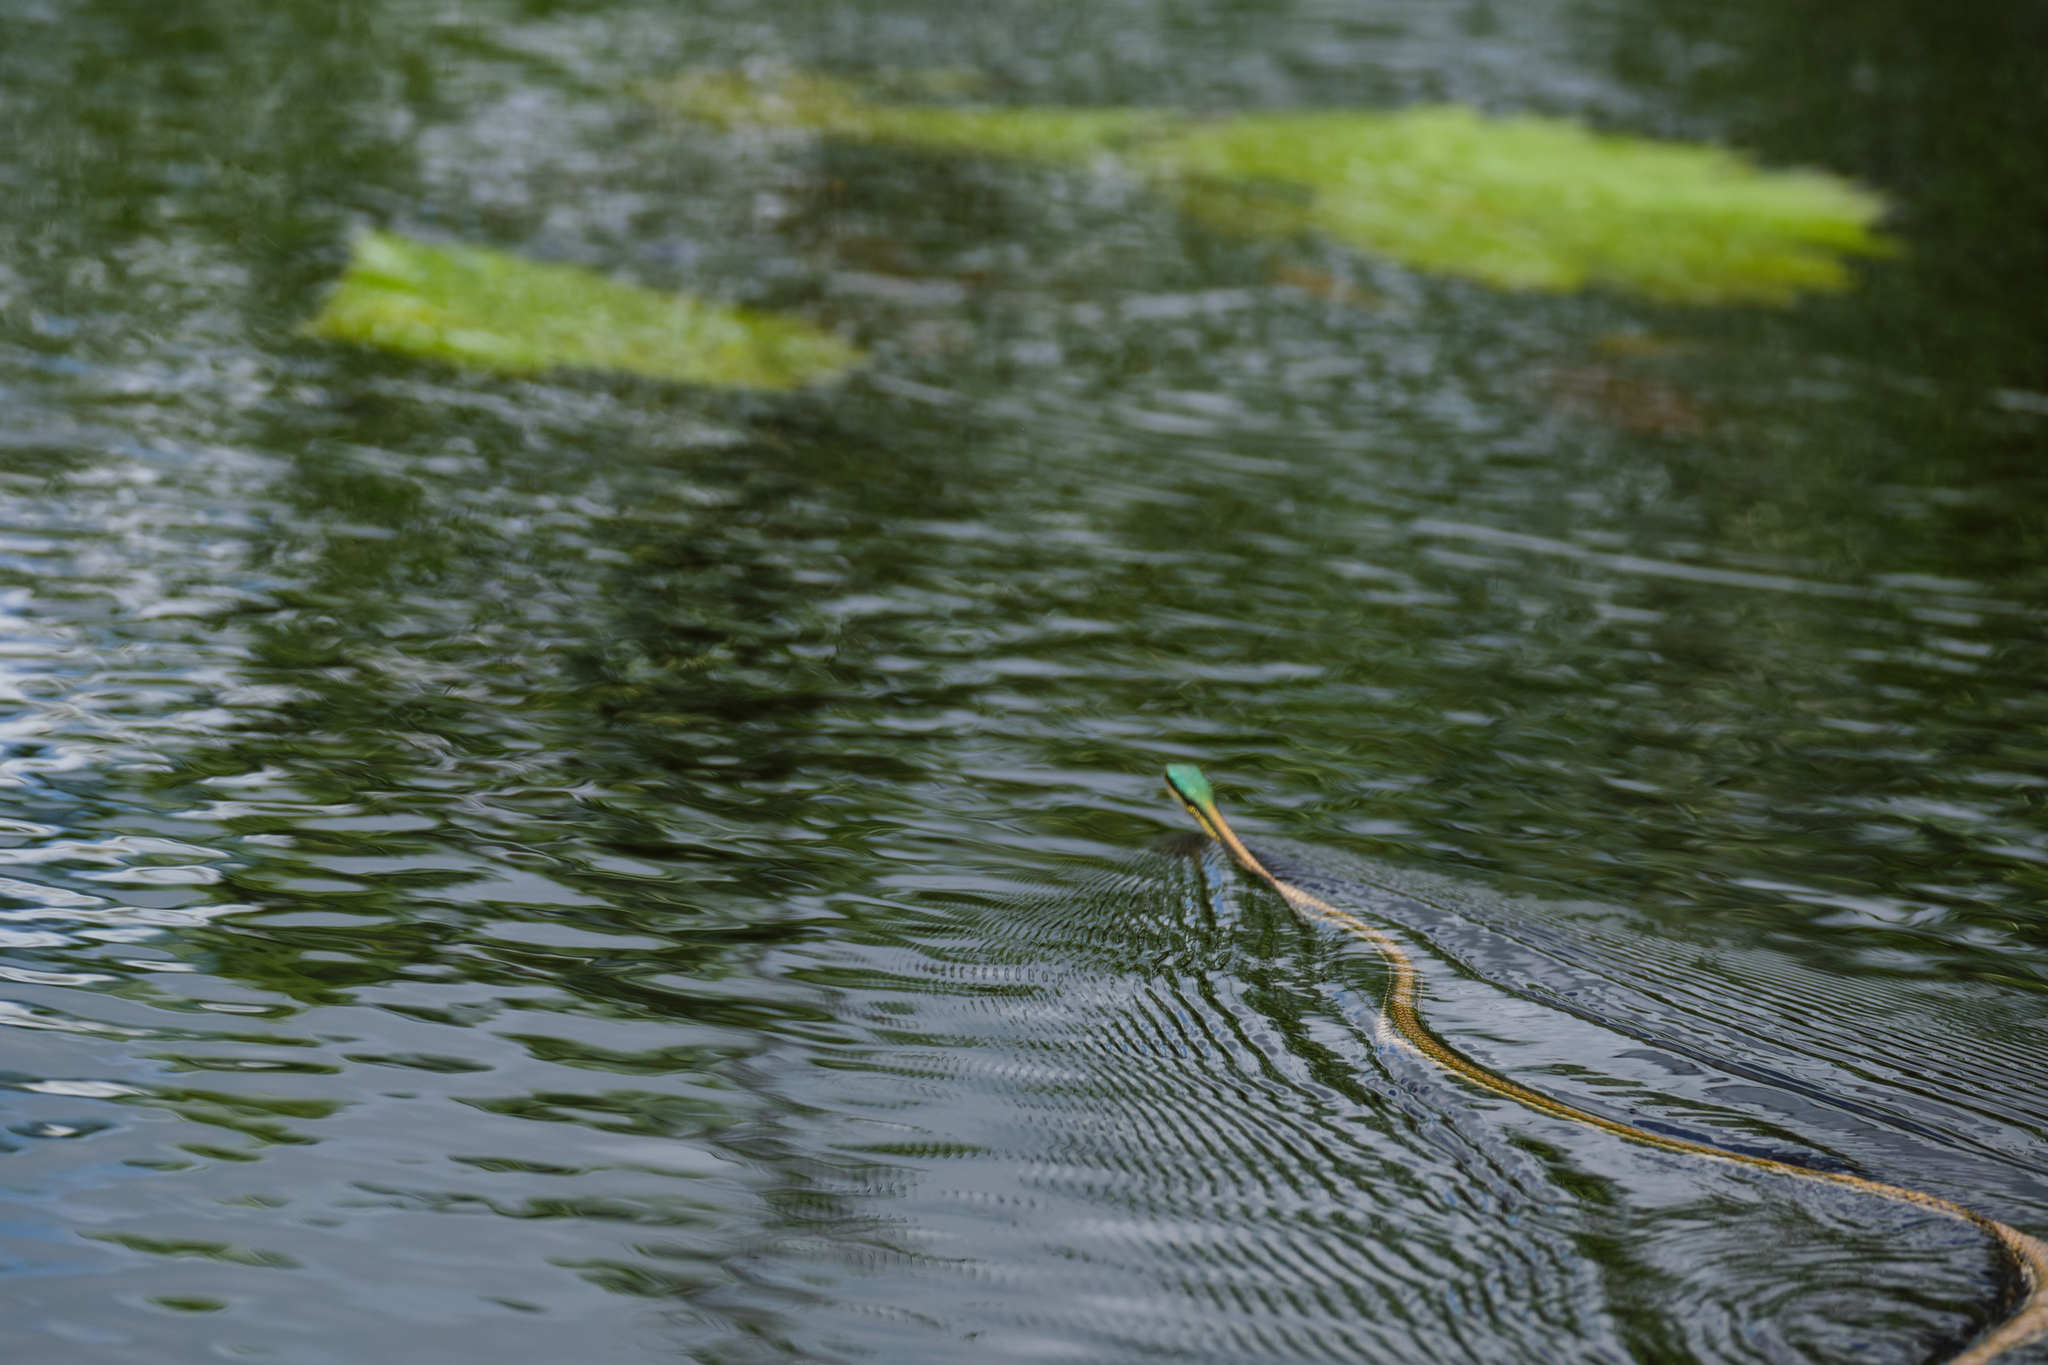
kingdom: Animalia
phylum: Chordata
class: Squamata
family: Colubridae
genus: Leptophis
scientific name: Leptophis mexicanus
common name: Mexican parrot snake
